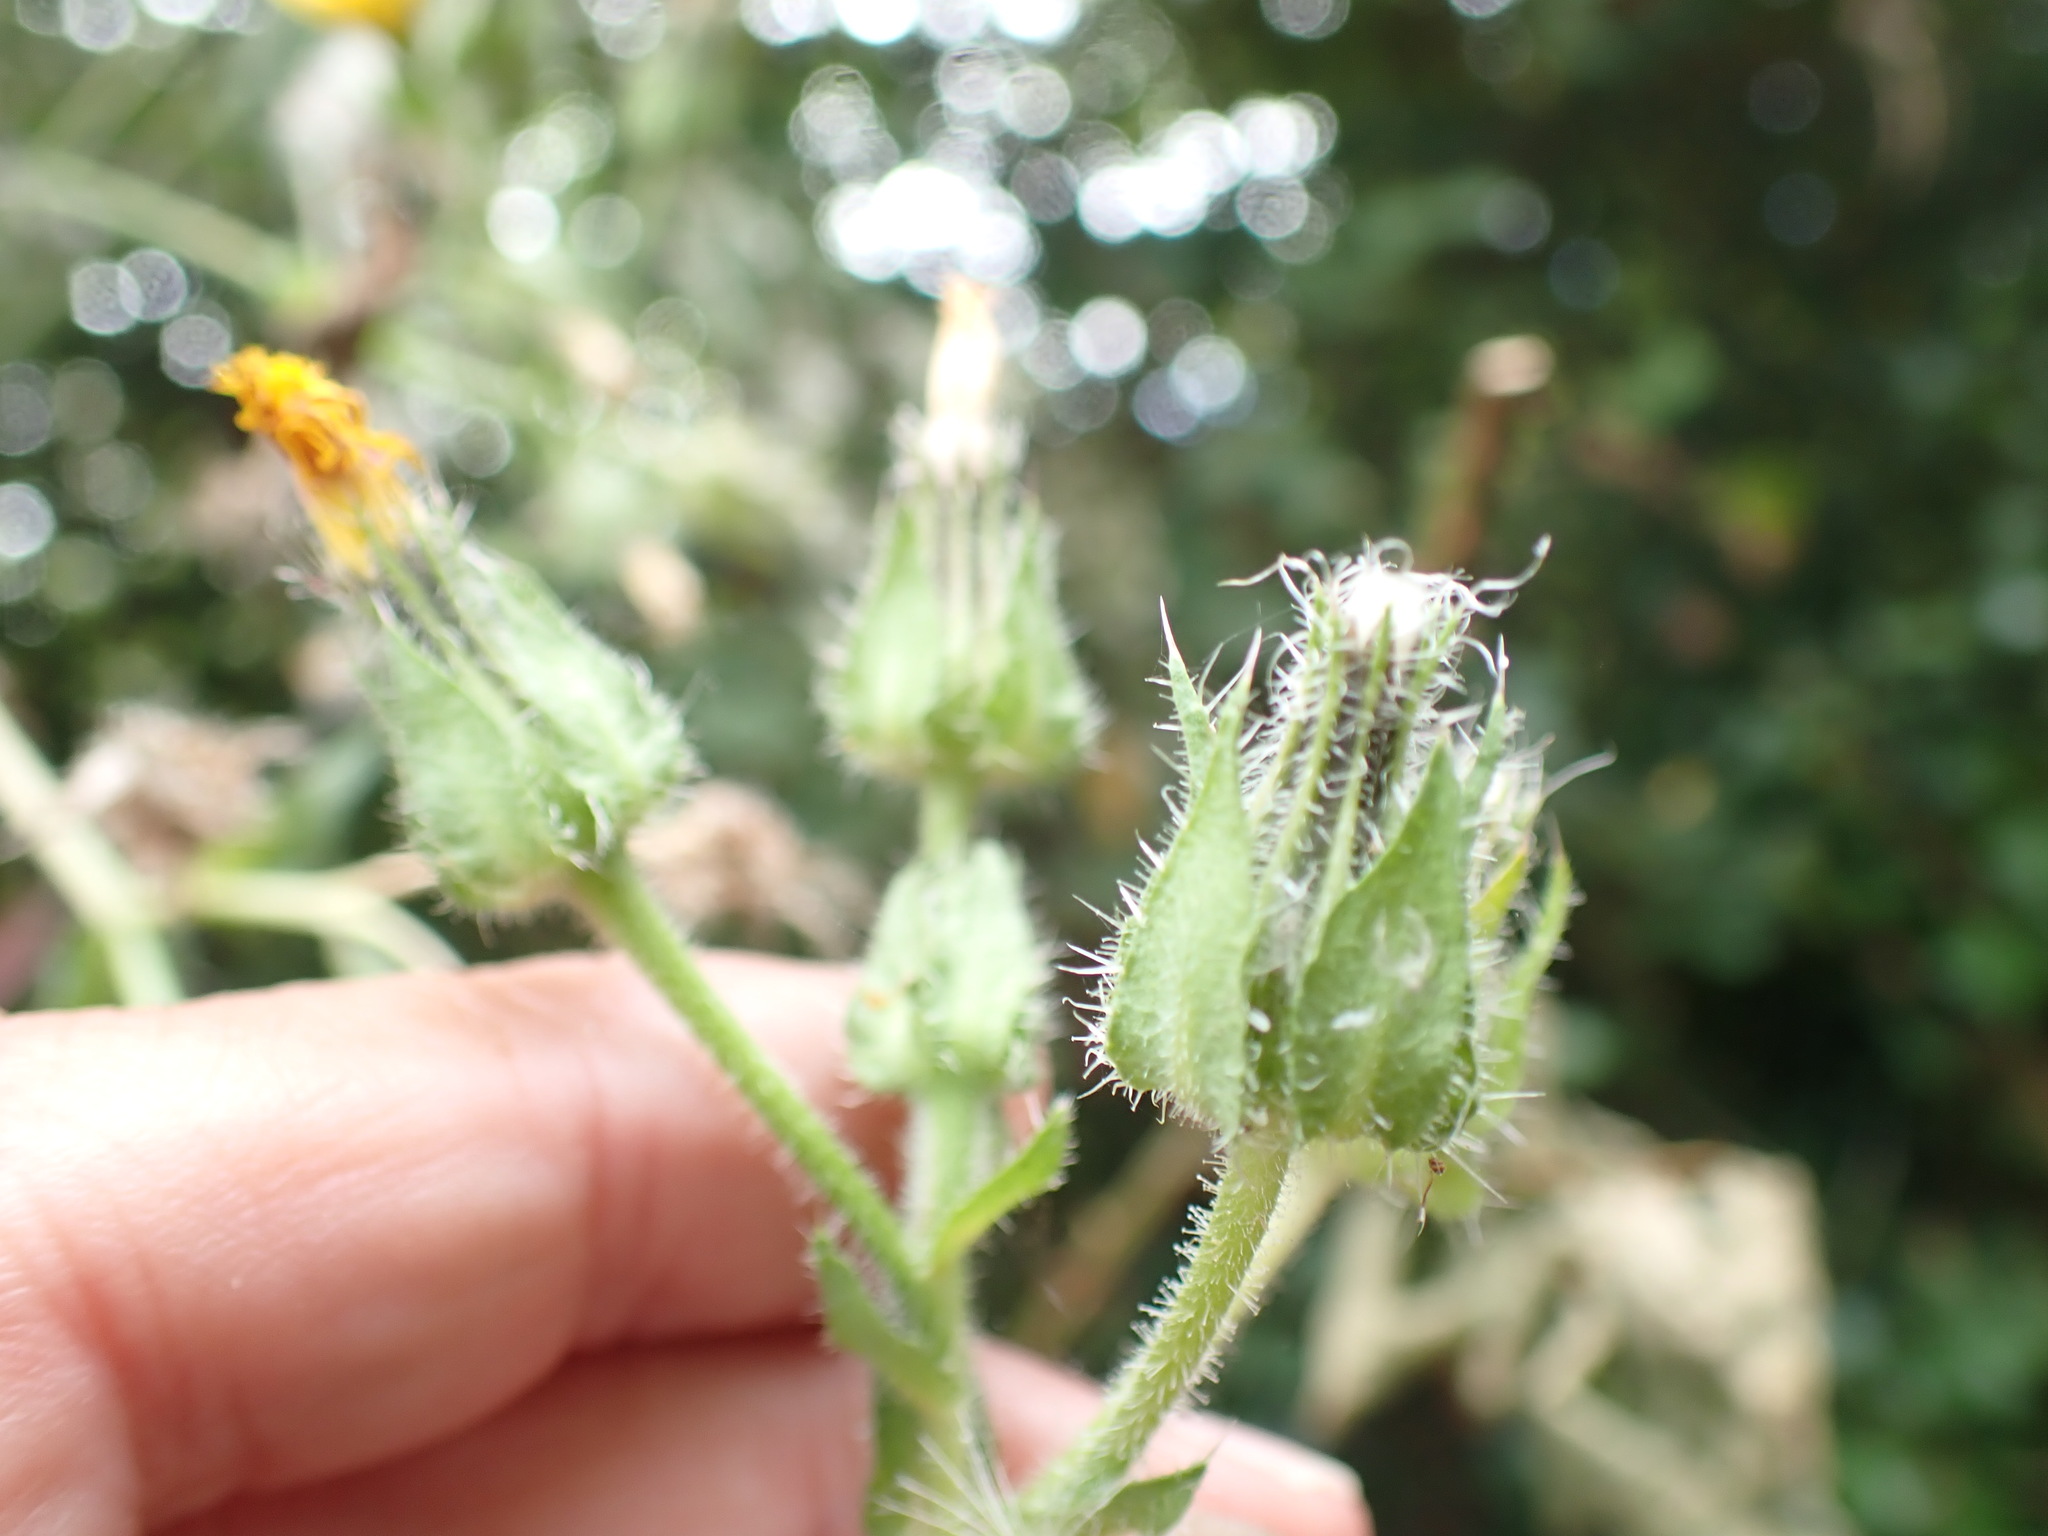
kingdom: Plantae
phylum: Tracheophyta
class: Magnoliopsida
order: Asterales
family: Asteraceae
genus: Helminthotheca
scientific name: Helminthotheca echioides
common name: Ox-tongue
